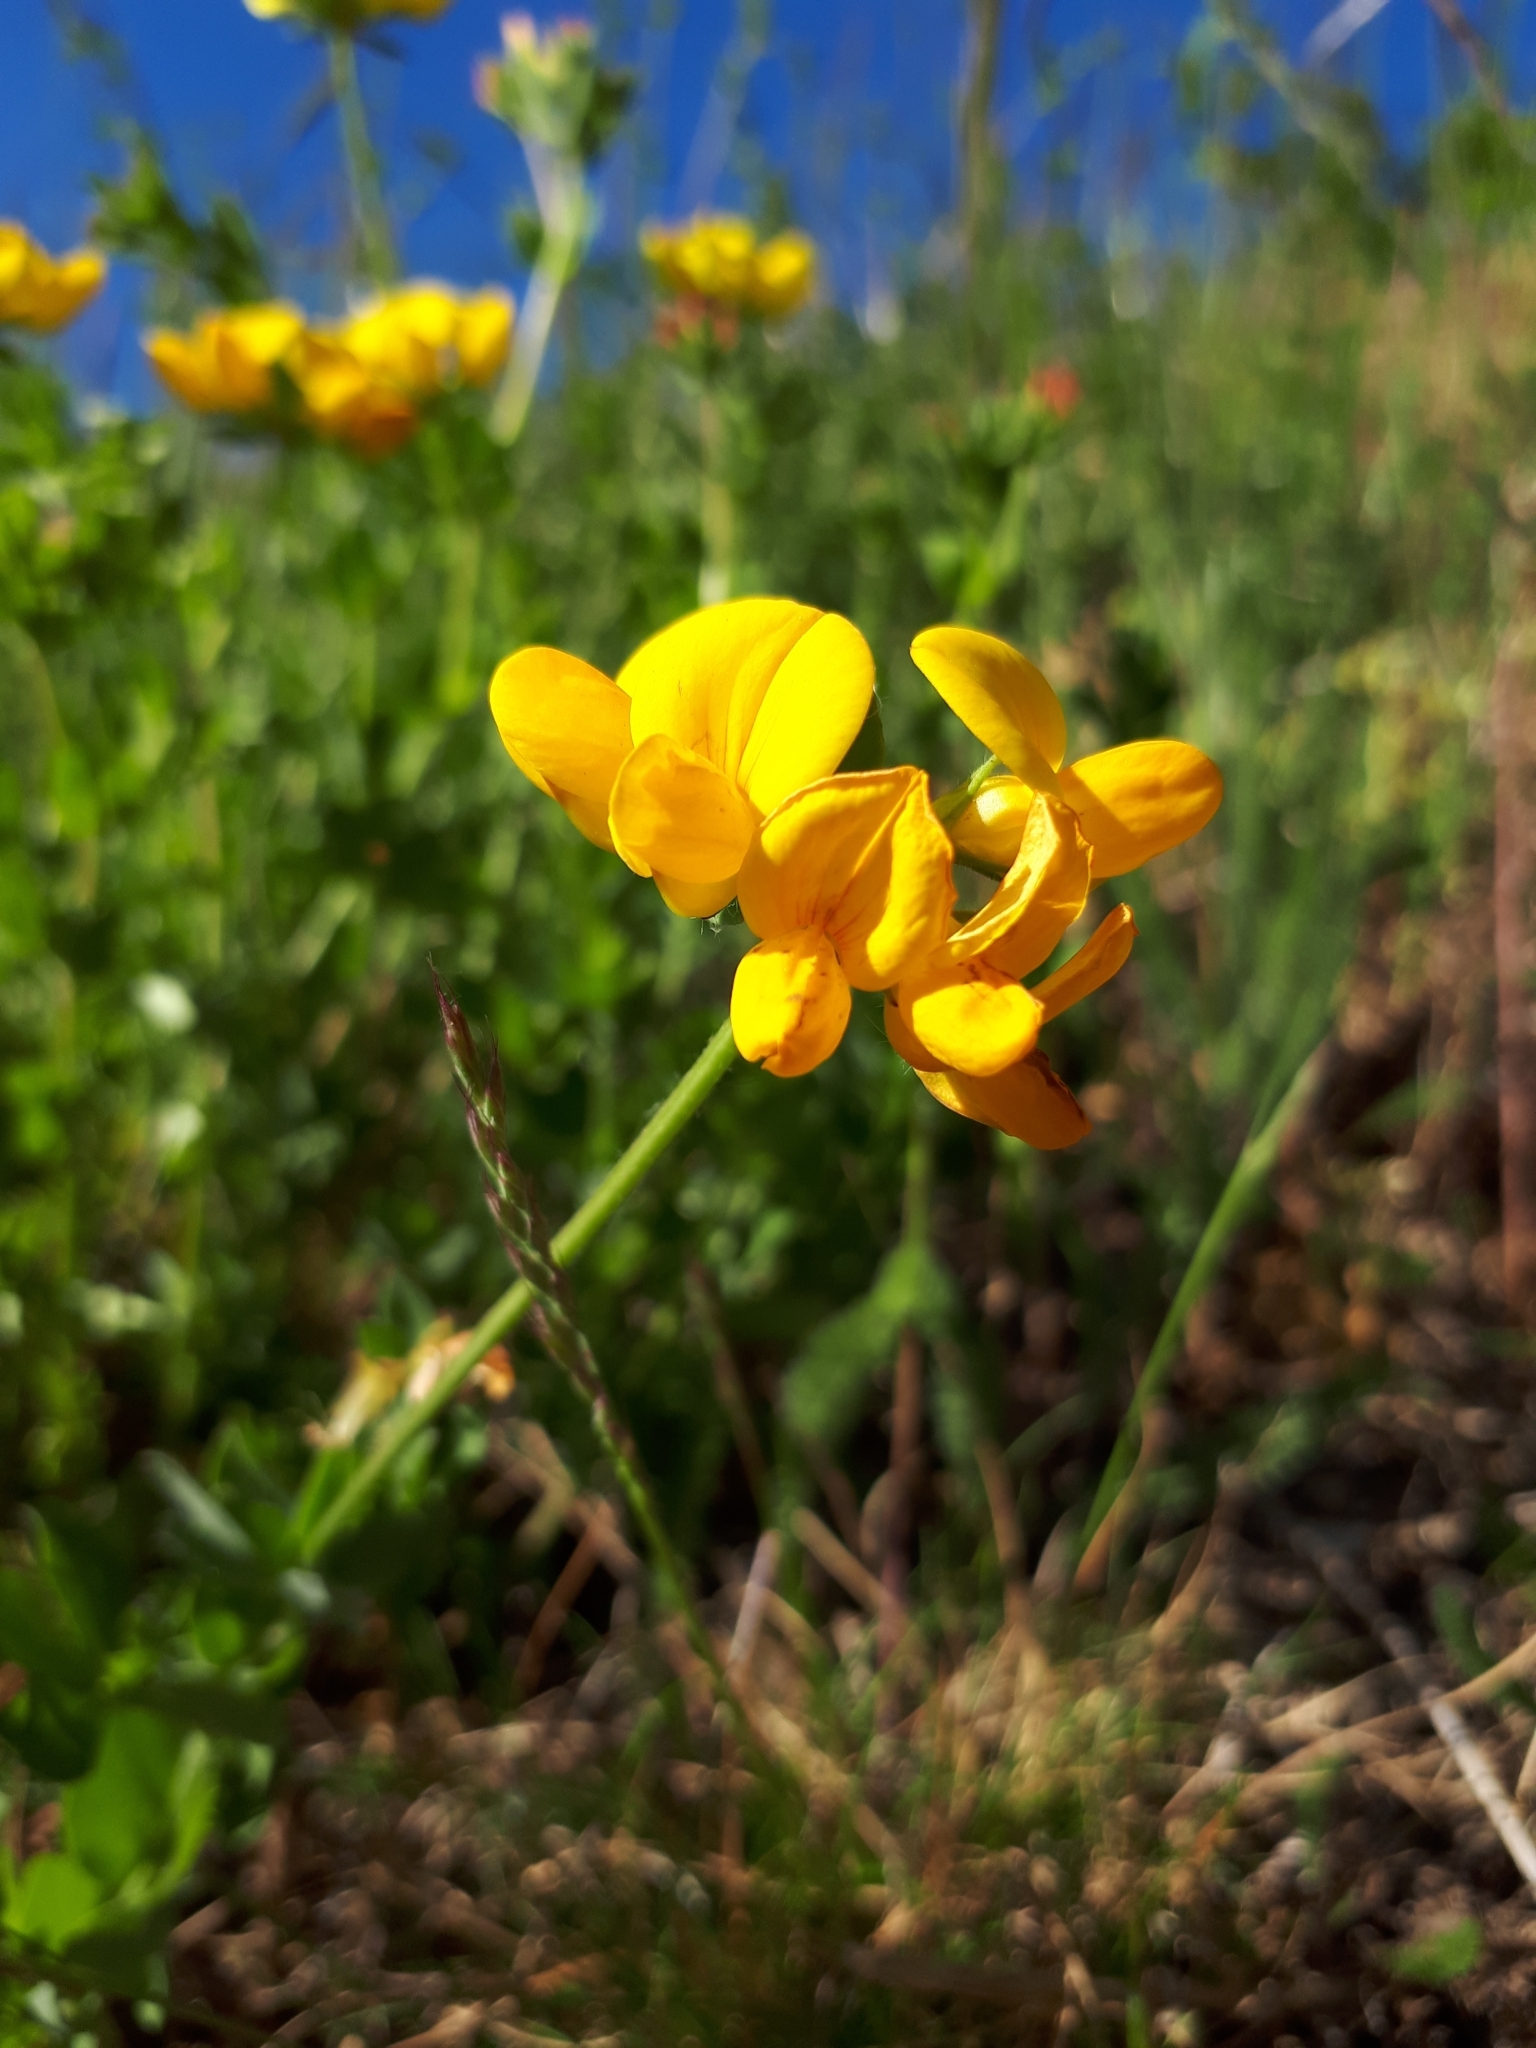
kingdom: Plantae
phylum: Tracheophyta
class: Magnoliopsida
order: Fabales
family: Fabaceae
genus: Lotus
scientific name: Lotus corniculatus
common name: Common bird's-foot-trefoil
